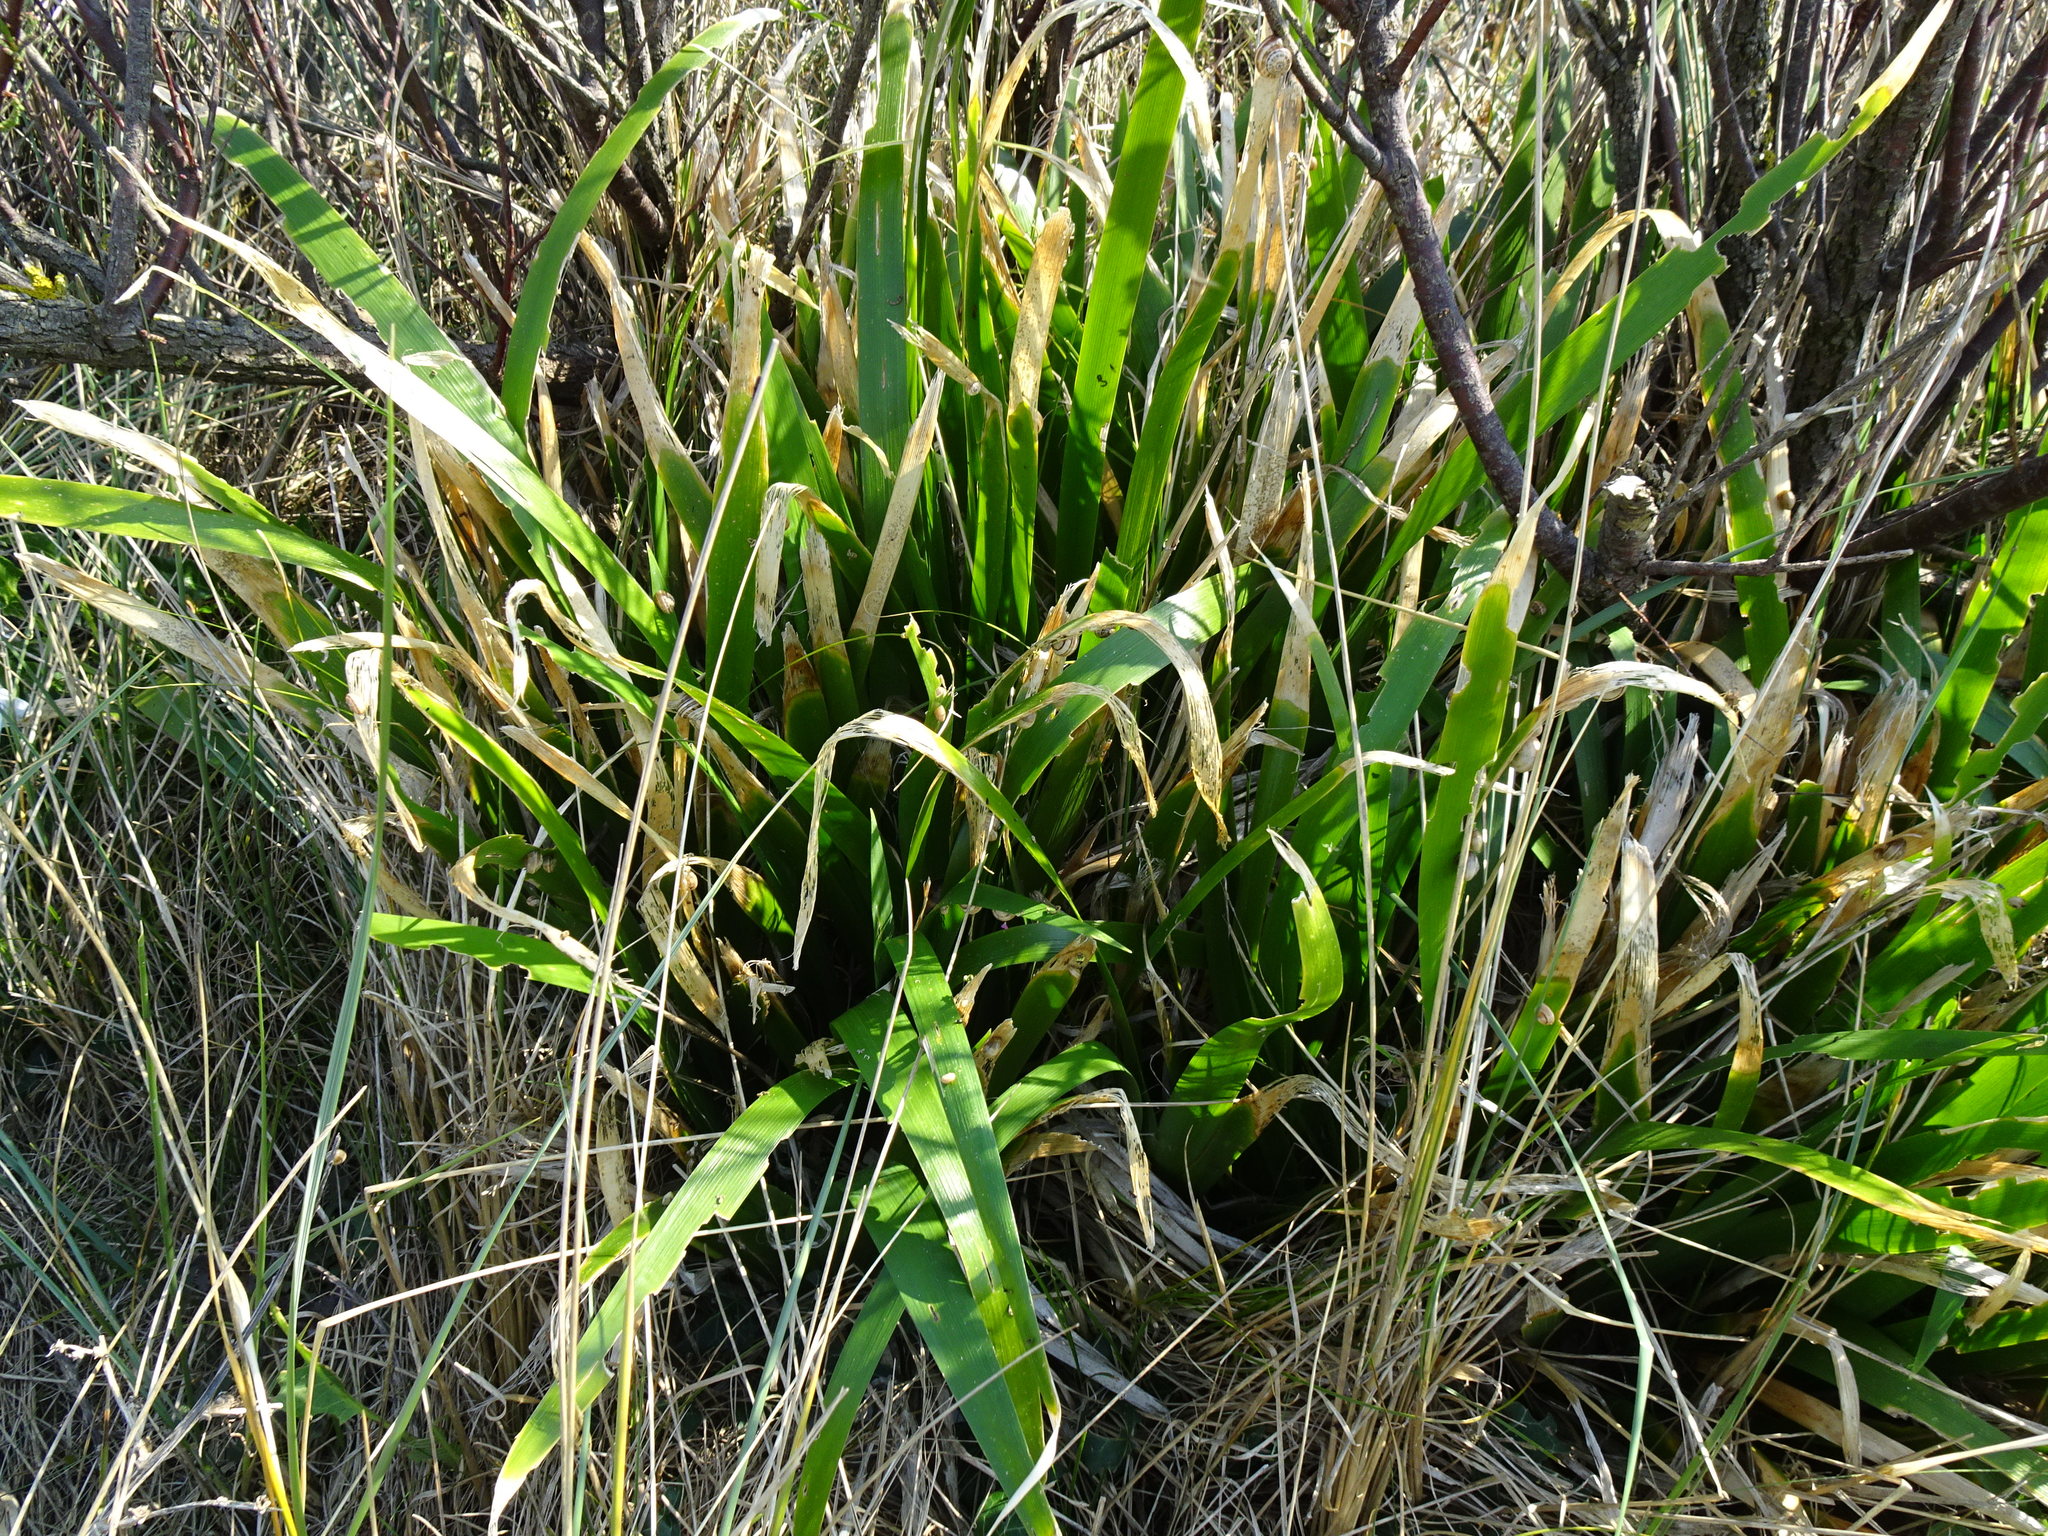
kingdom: Plantae
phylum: Tracheophyta
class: Liliopsida
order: Asparagales
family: Iridaceae
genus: Iris
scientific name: Iris foetidissima
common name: Stinking iris
